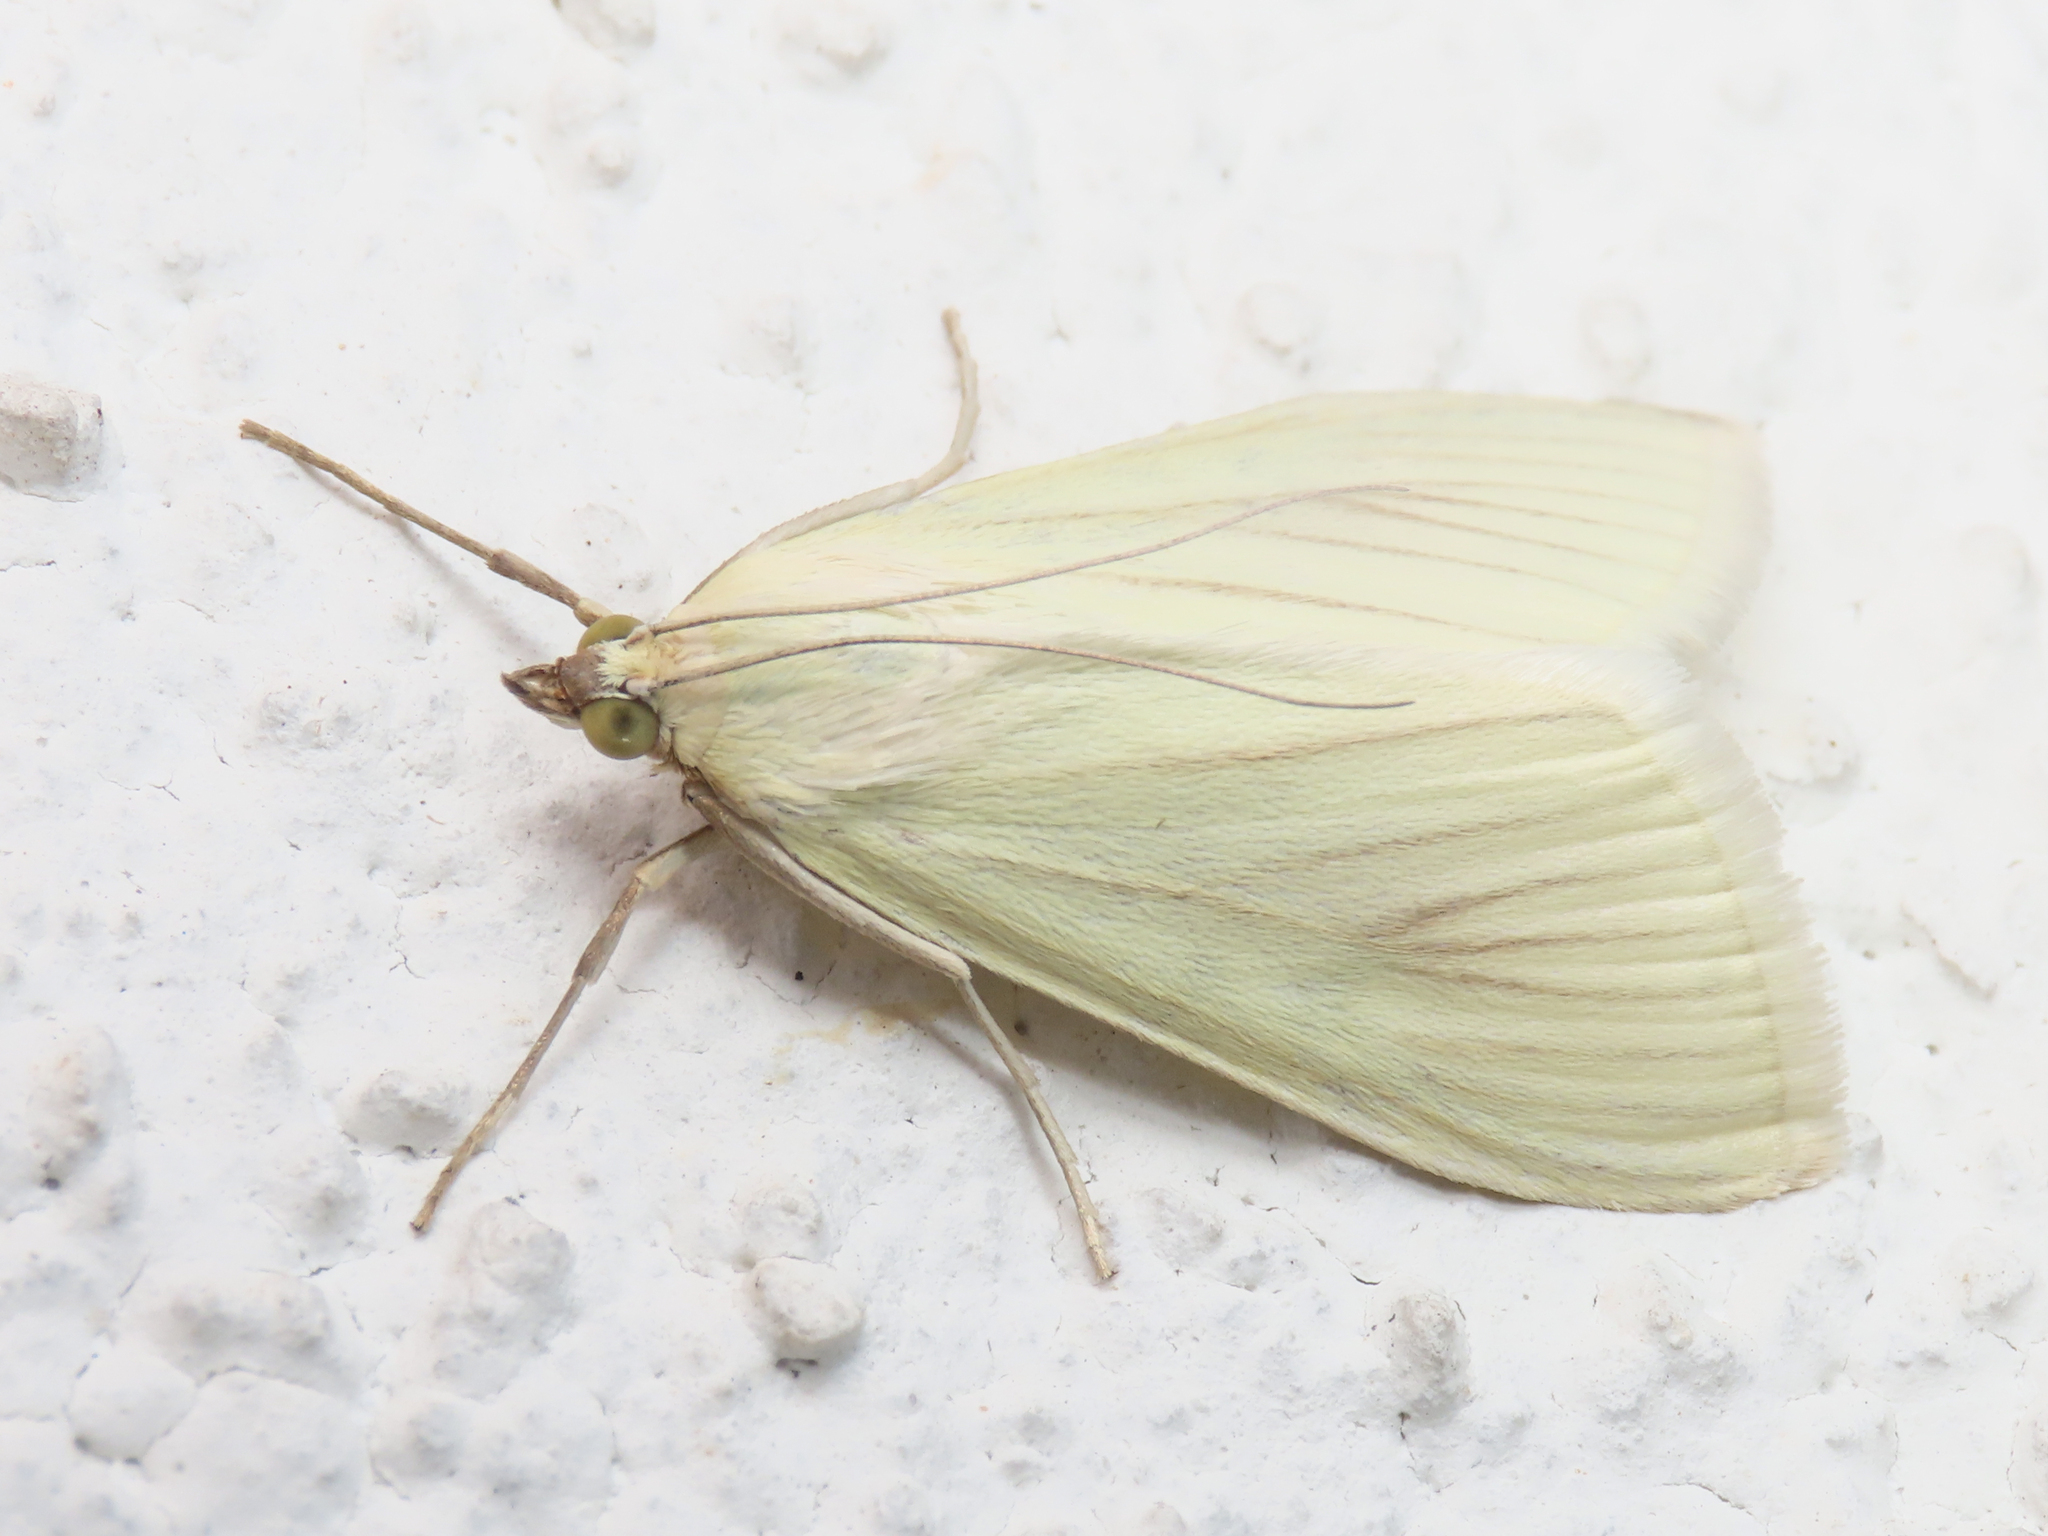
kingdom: Animalia
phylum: Arthropoda
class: Insecta
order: Lepidoptera
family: Crambidae
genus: Sitochroa
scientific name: Sitochroa palealis
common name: Greenish-yellow sitochroa moth
